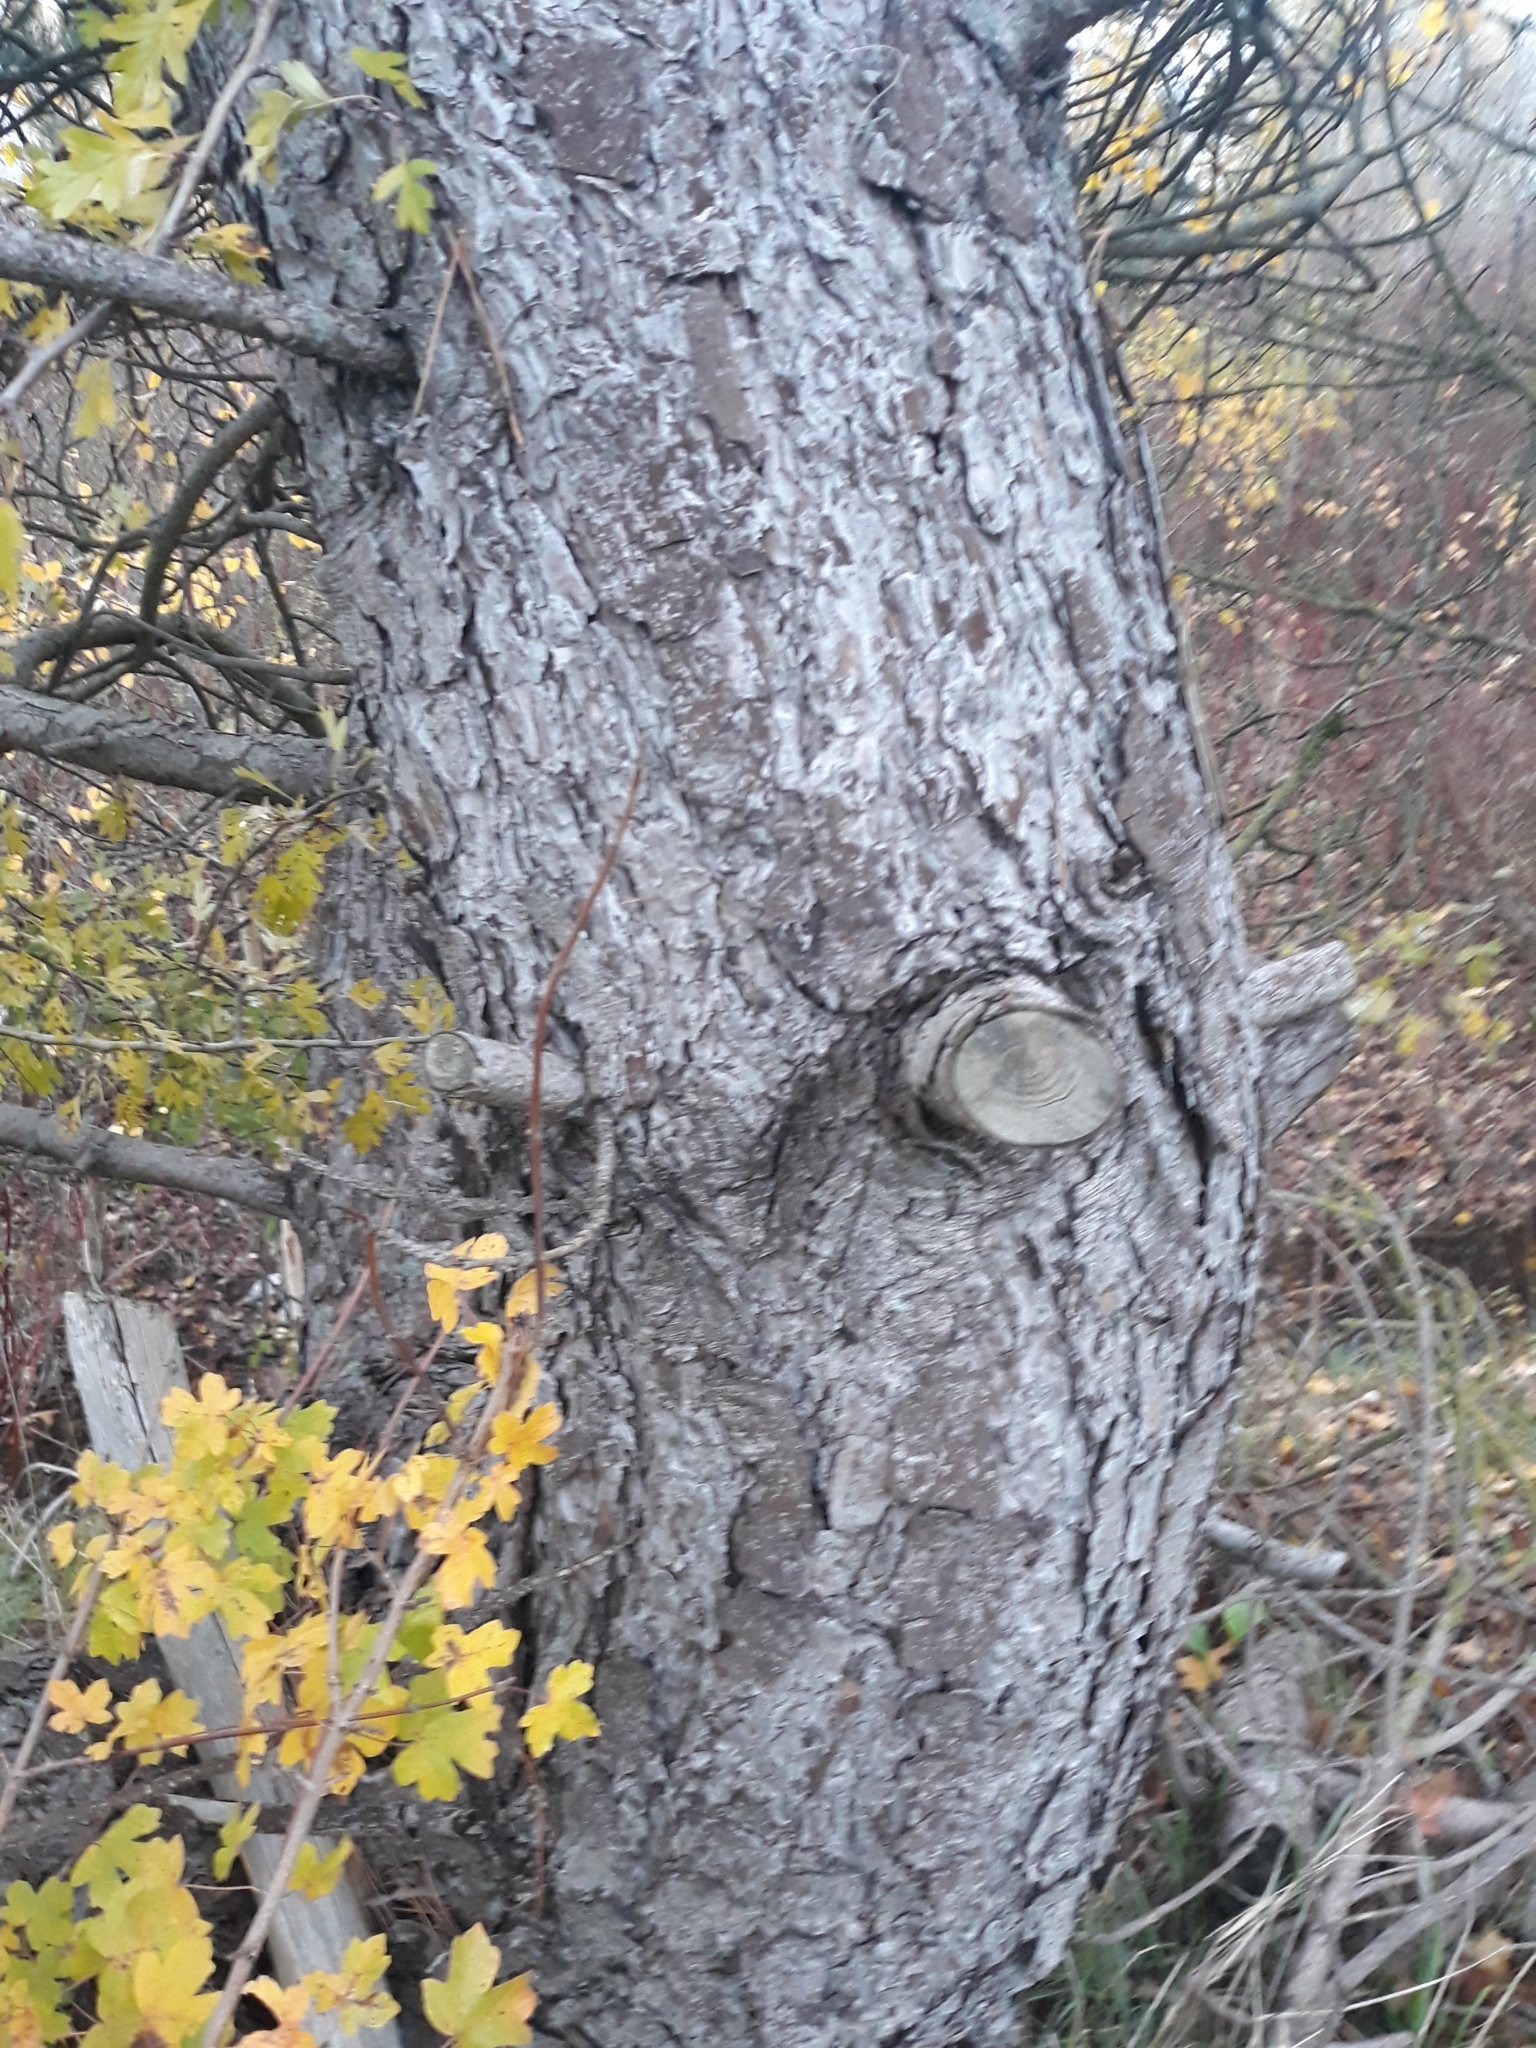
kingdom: Plantae
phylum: Tracheophyta
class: Pinopsida
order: Pinales
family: Pinaceae
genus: Pinus
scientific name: Pinus nigra
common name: Austrian pine
